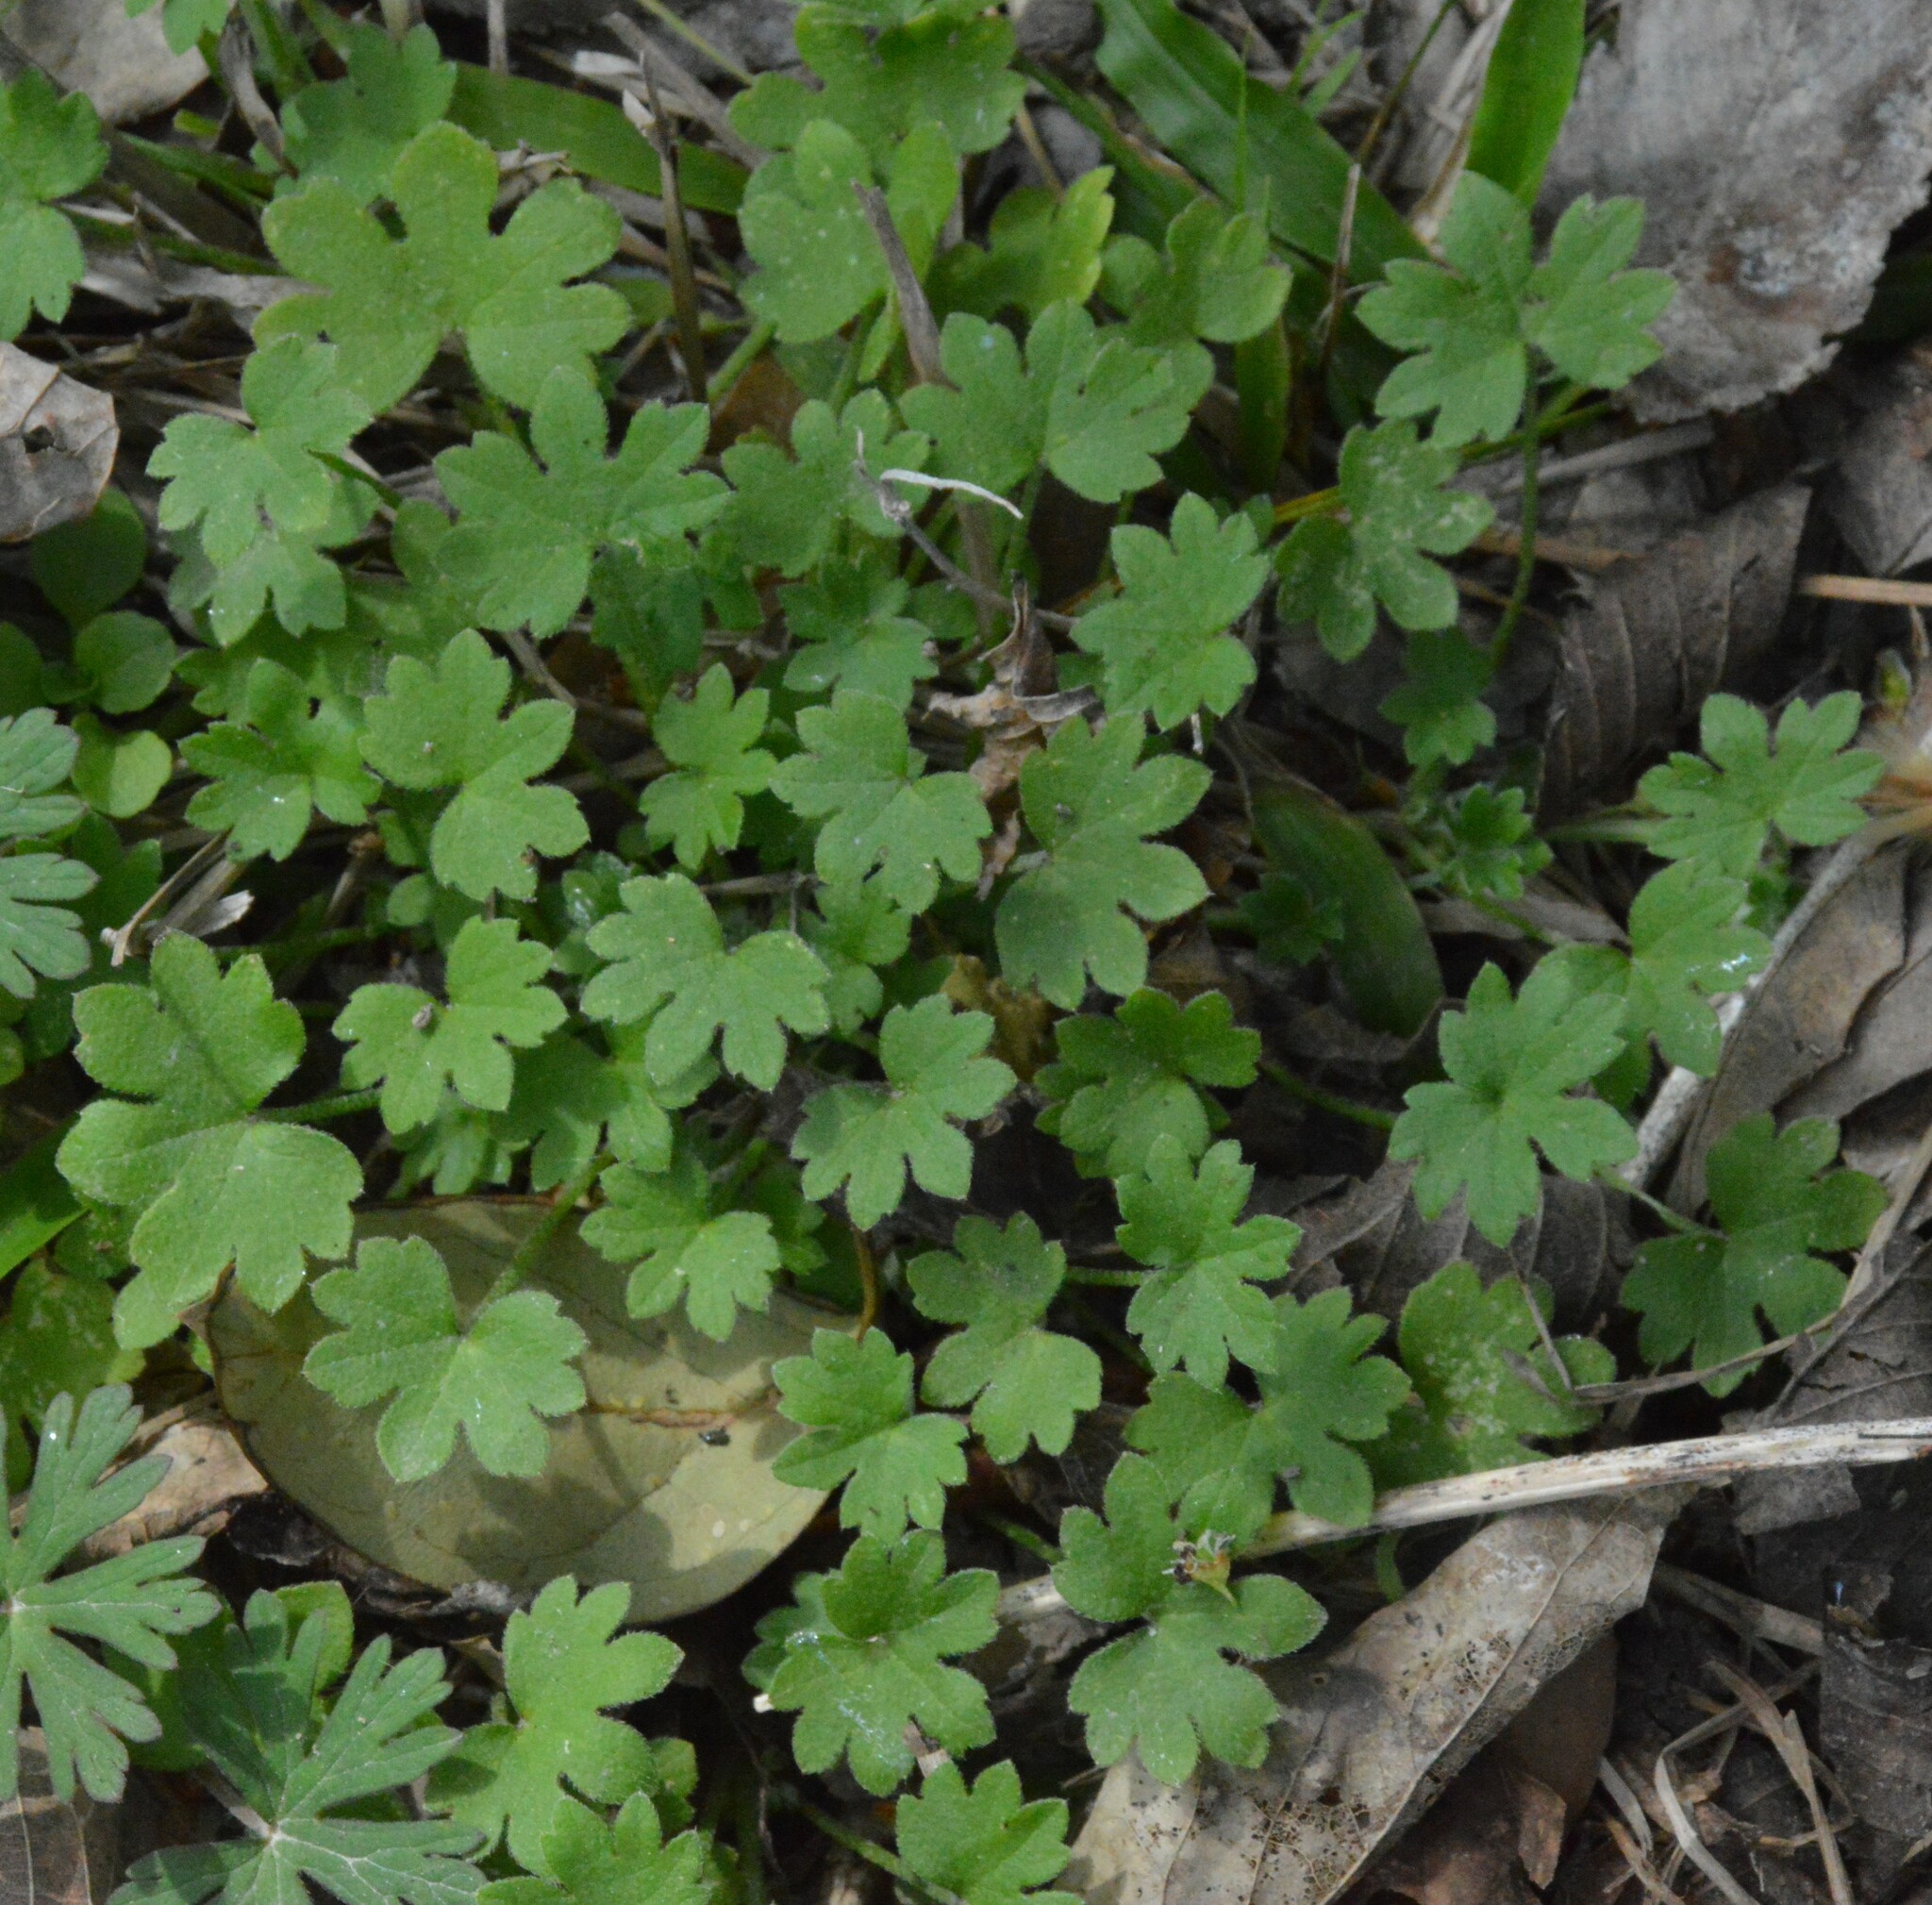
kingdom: Plantae
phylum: Tracheophyta
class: Magnoliopsida
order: Apiales
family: Apiaceae
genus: Bowlesia
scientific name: Bowlesia incana
